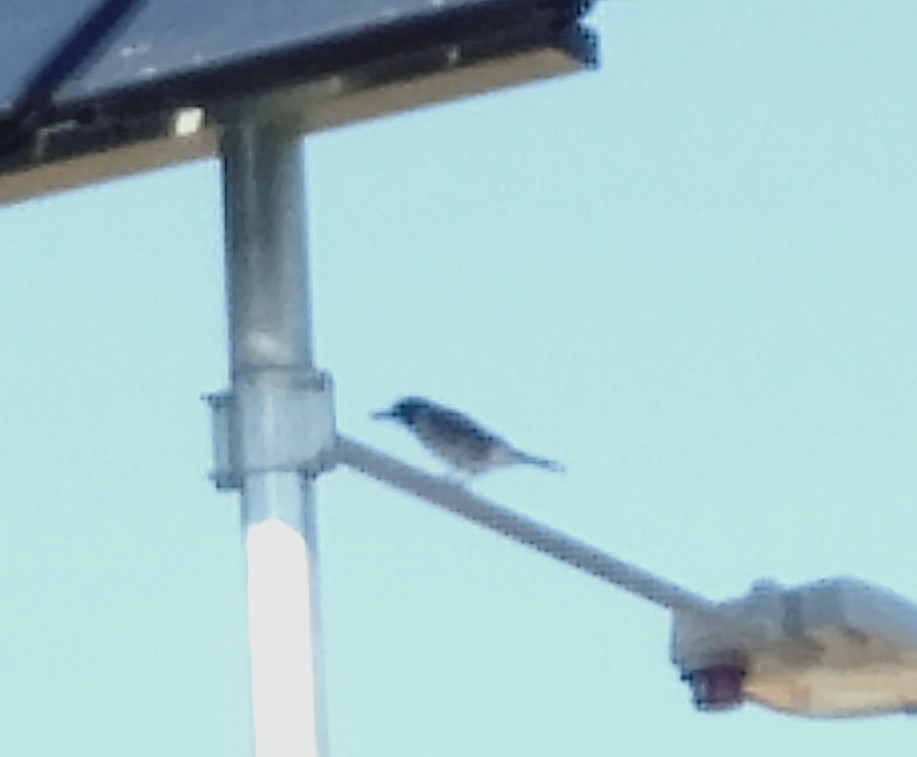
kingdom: Animalia
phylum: Chordata
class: Aves
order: Passeriformes
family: Cracticidae
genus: Cracticus
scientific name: Cracticus torquatus
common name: Grey butcherbird
